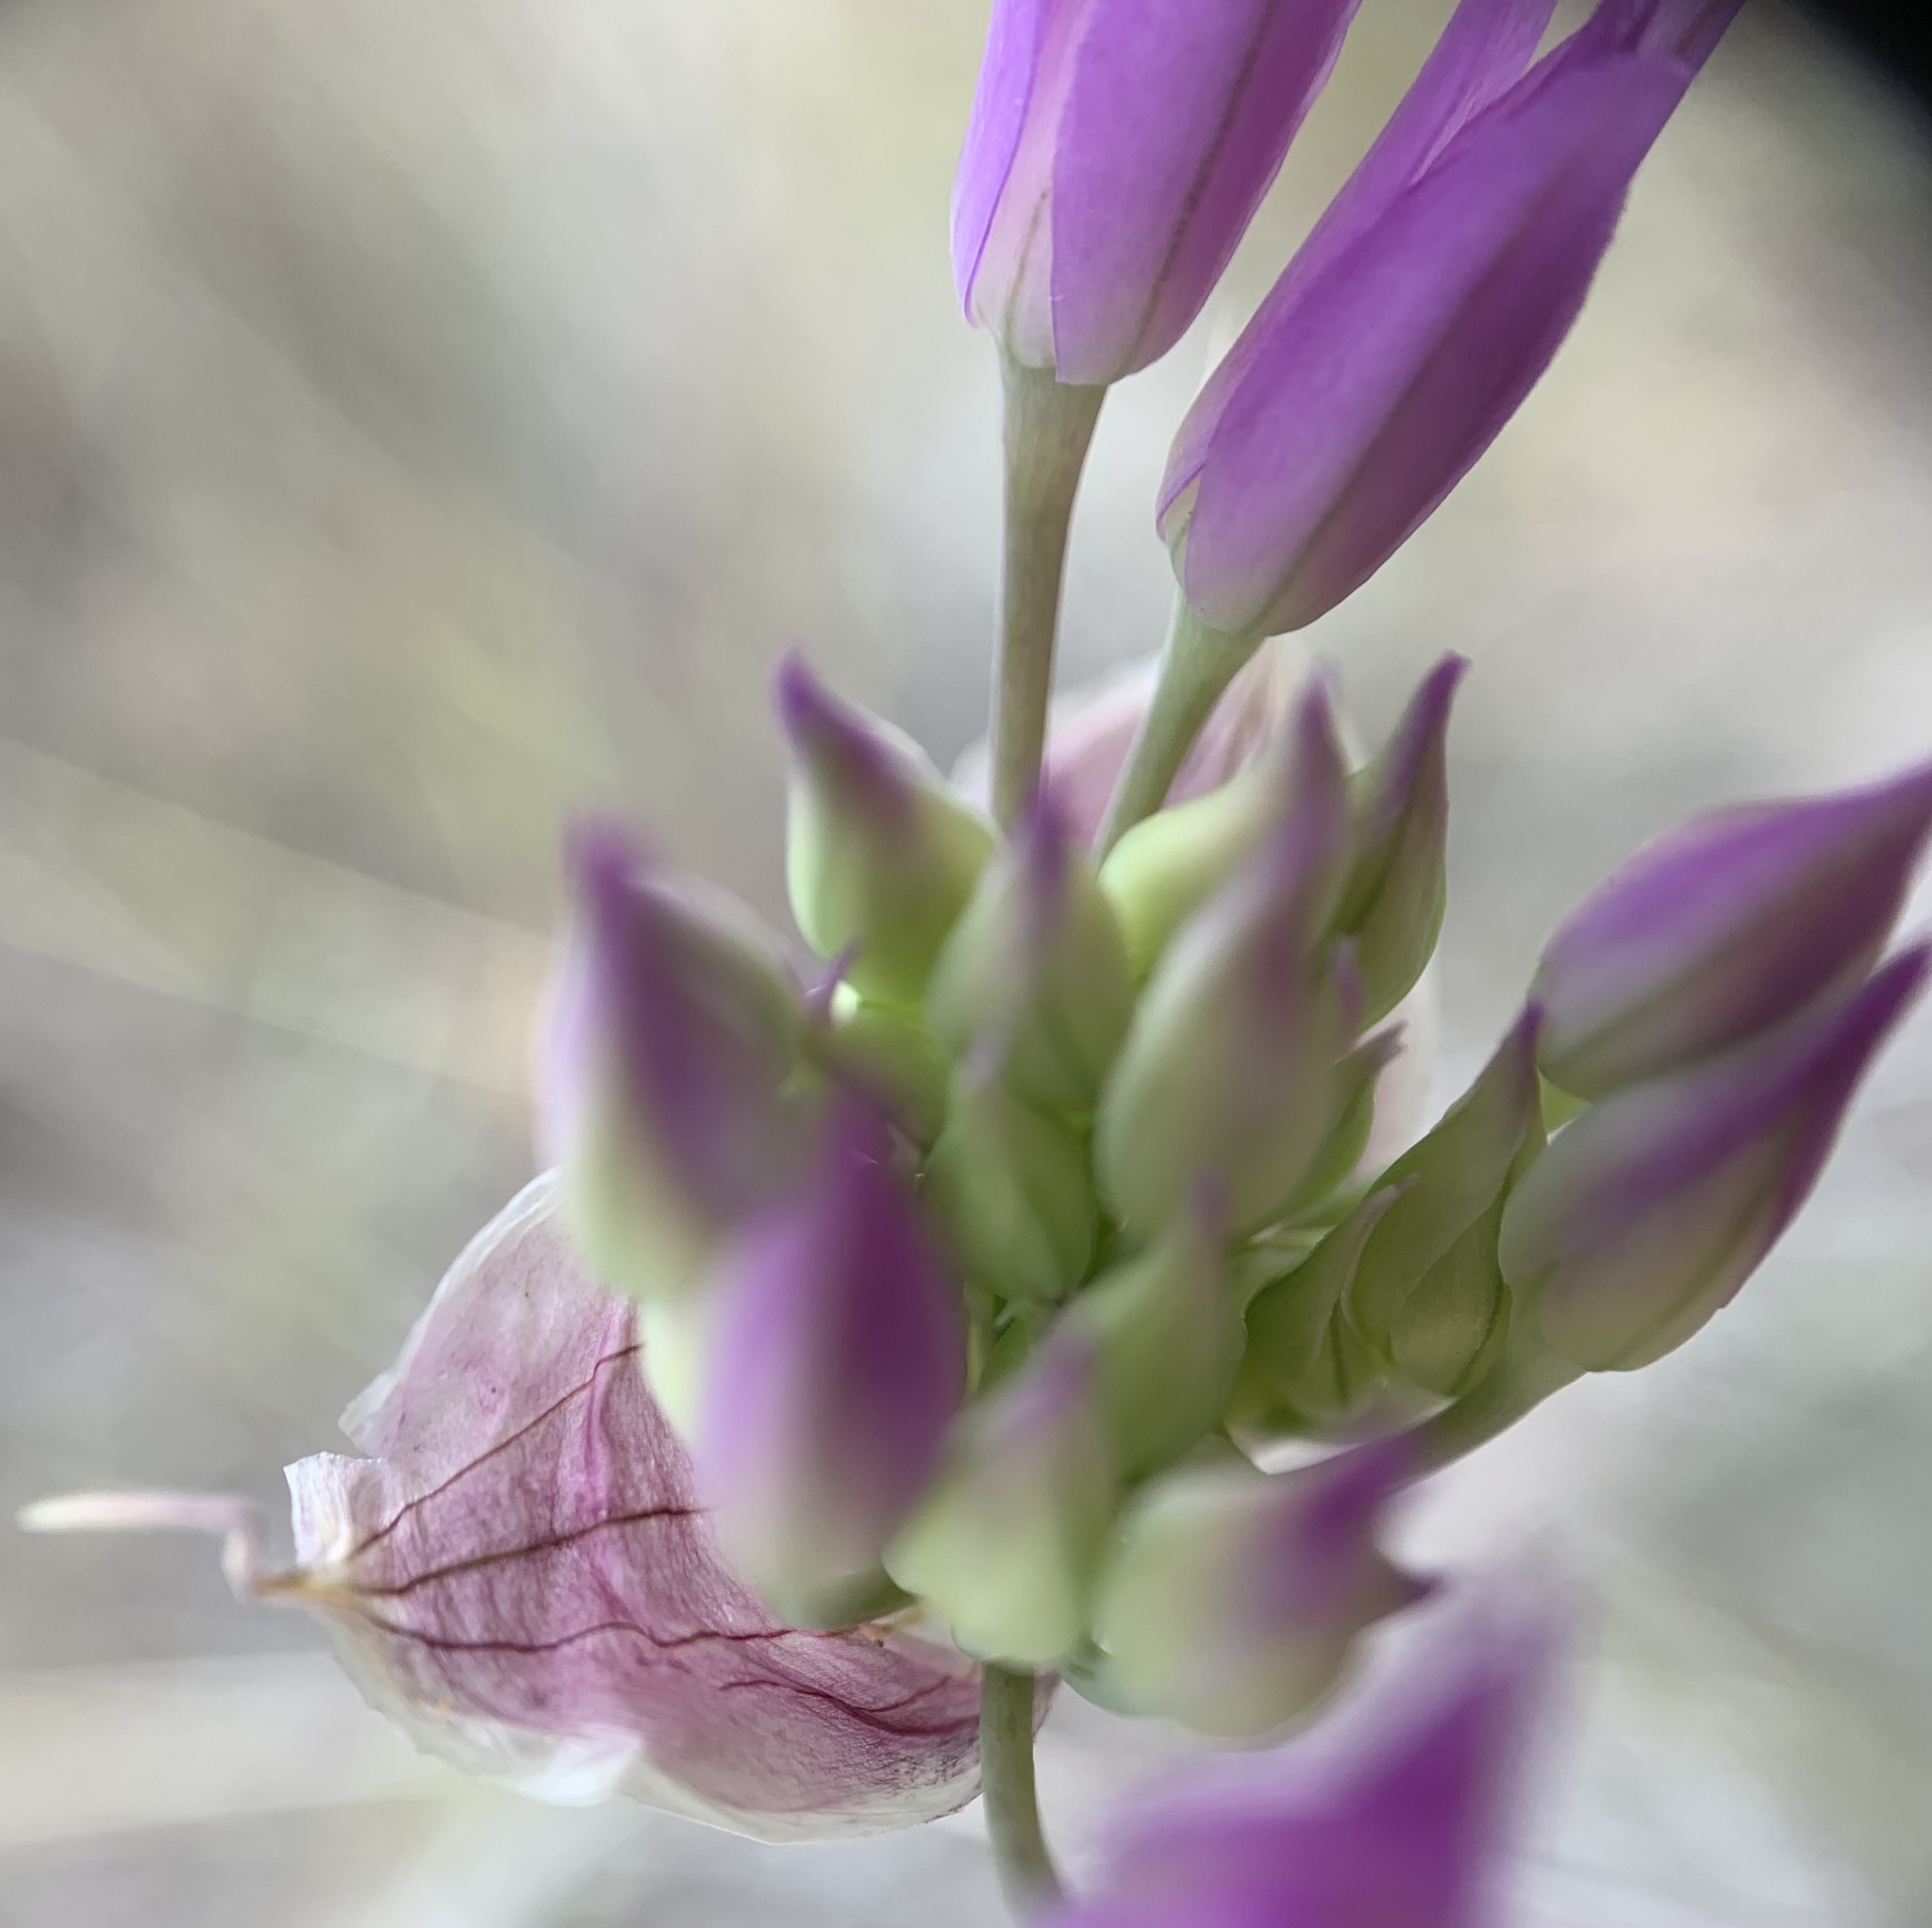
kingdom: Plantae
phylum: Tracheophyta
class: Liliopsida
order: Asparagales
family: Amaryllidaceae
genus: Allium
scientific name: Allium acuminatum
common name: Hooker's onion
